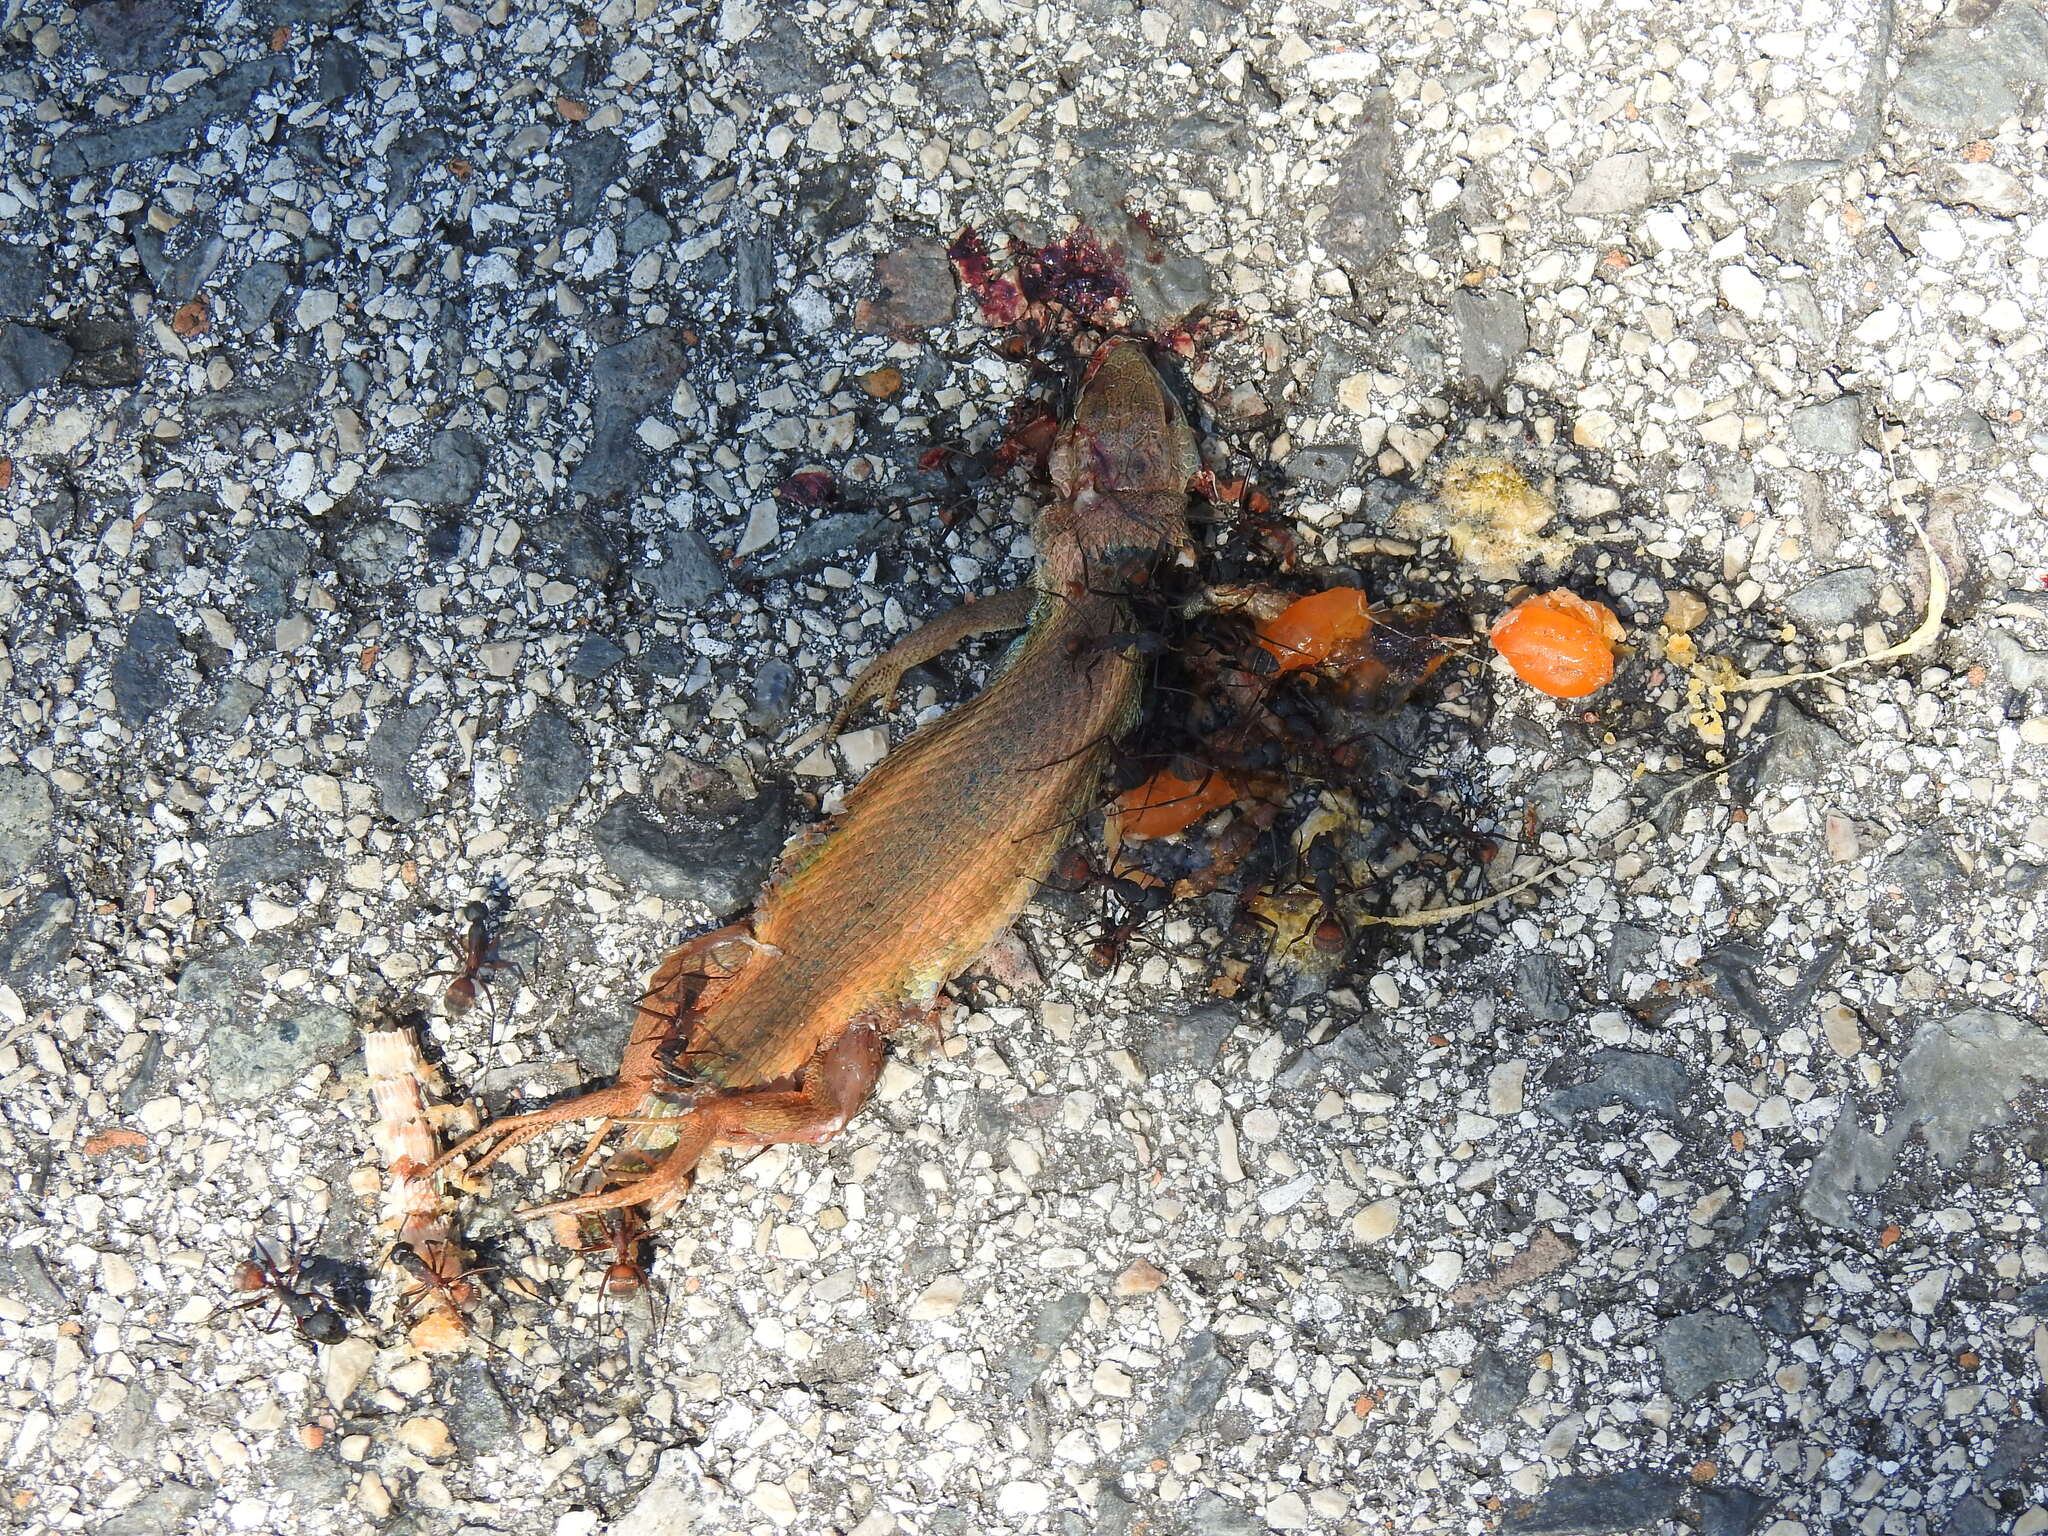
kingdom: Animalia
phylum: Chordata
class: Squamata
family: Lacertidae
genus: Psammodromus
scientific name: Psammodromus algirus
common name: Algerian psammodromus
